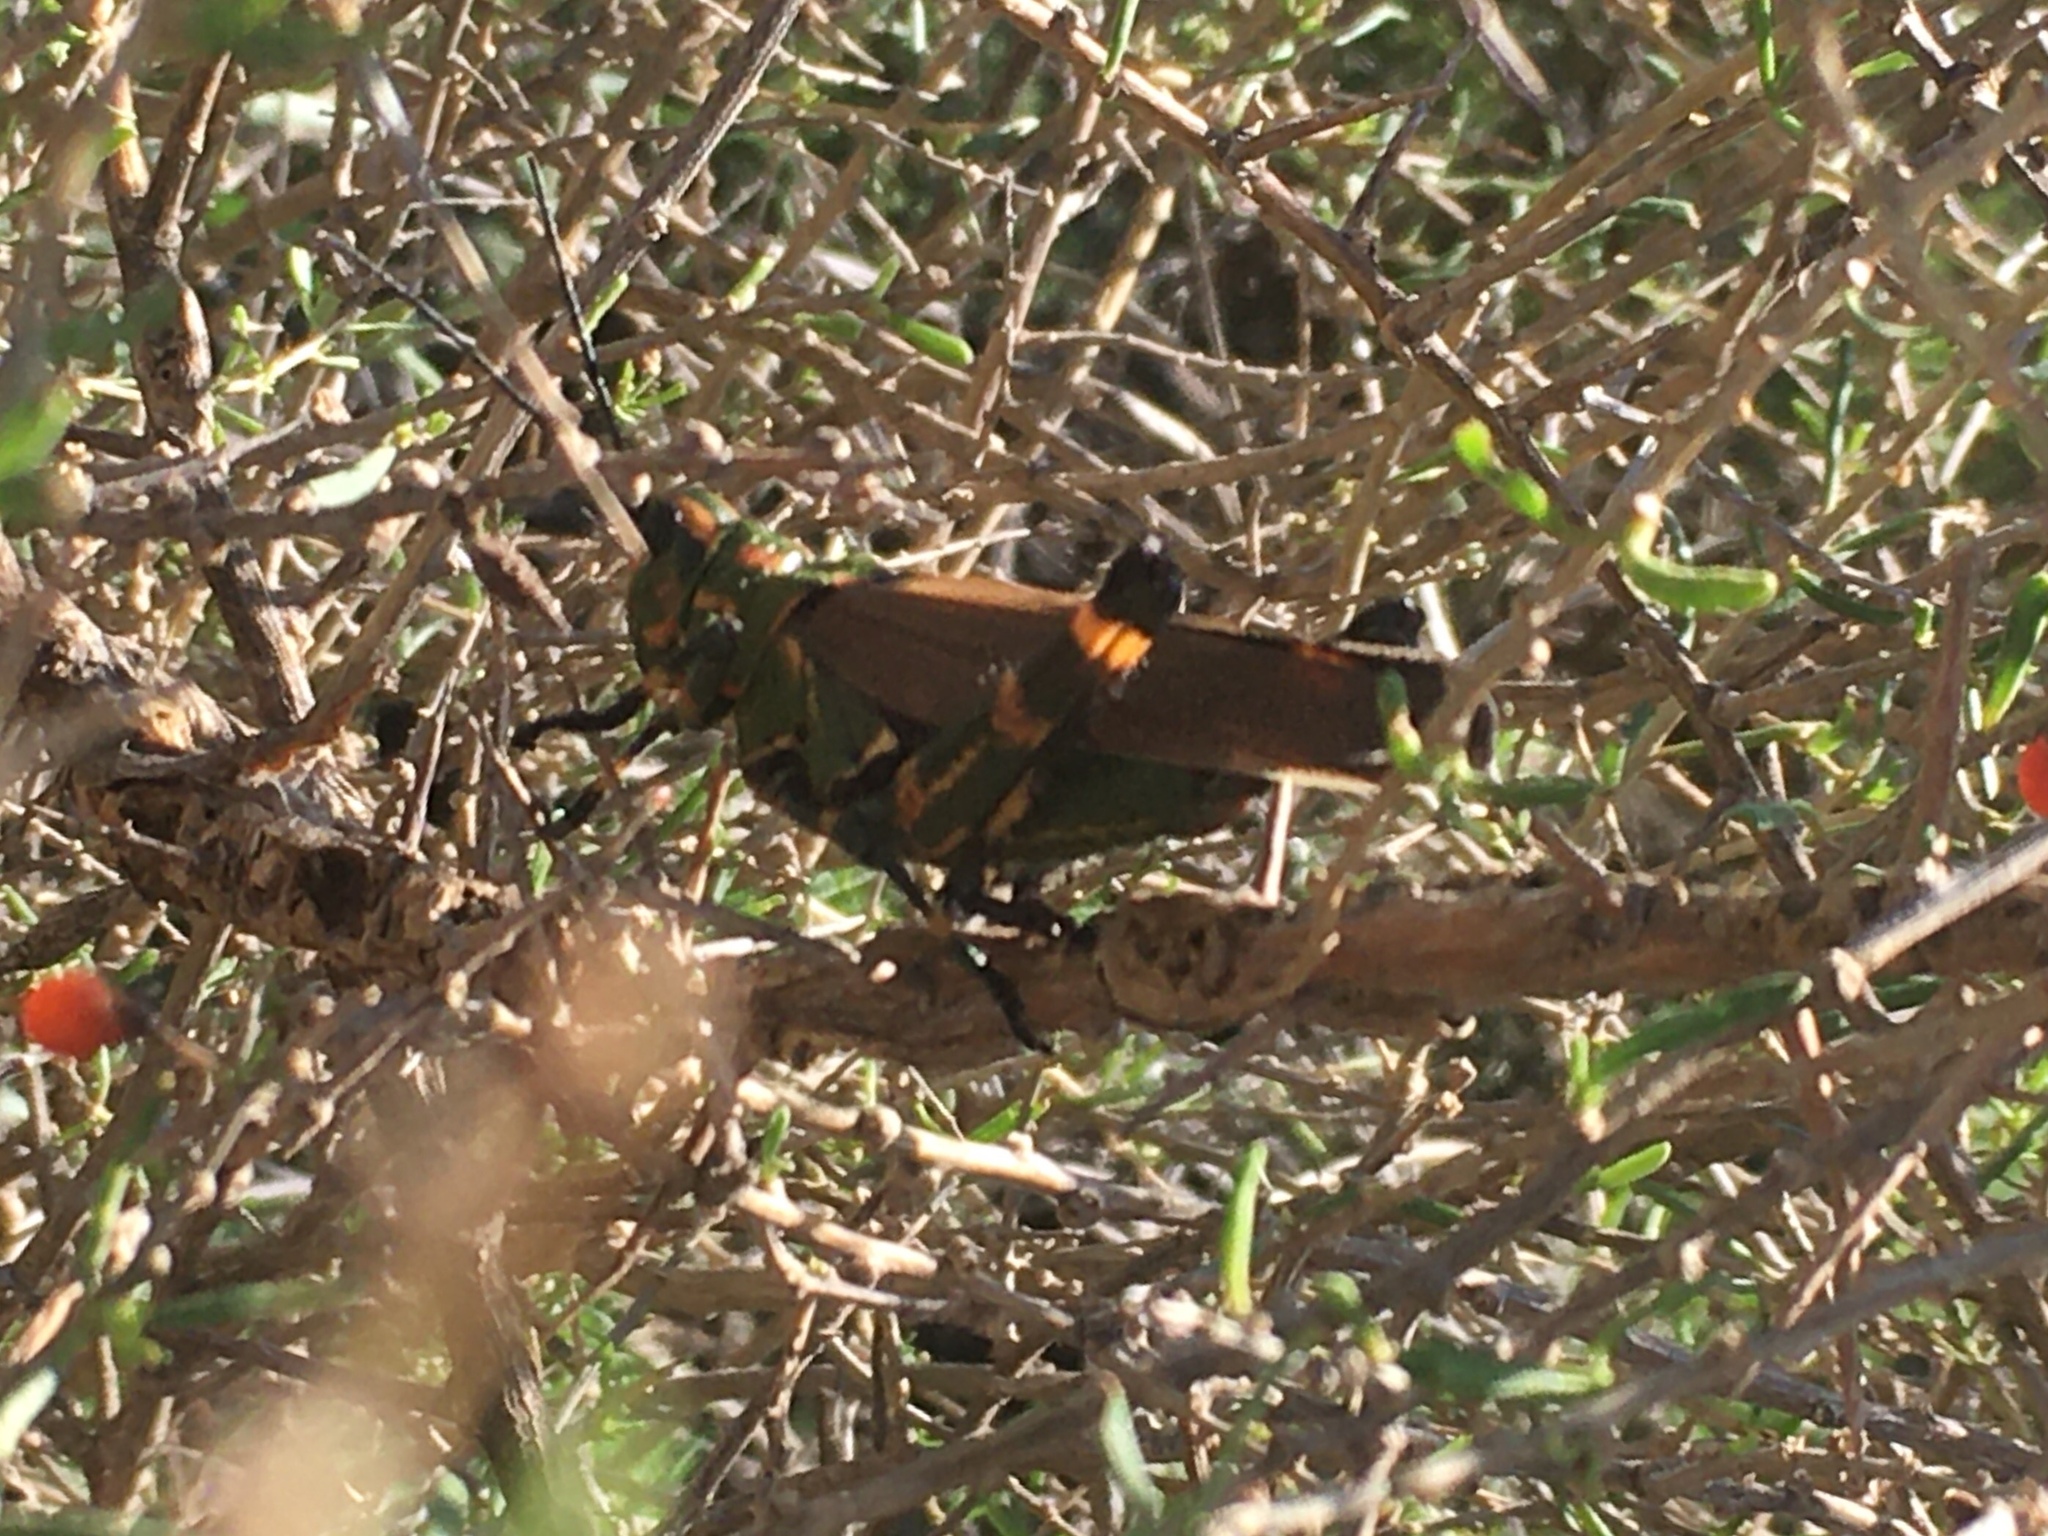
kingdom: Animalia
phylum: Arthropoda
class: Insecta
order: Orthoptera
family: Romaleidae
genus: Chromacris
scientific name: Chromacris speciosa
